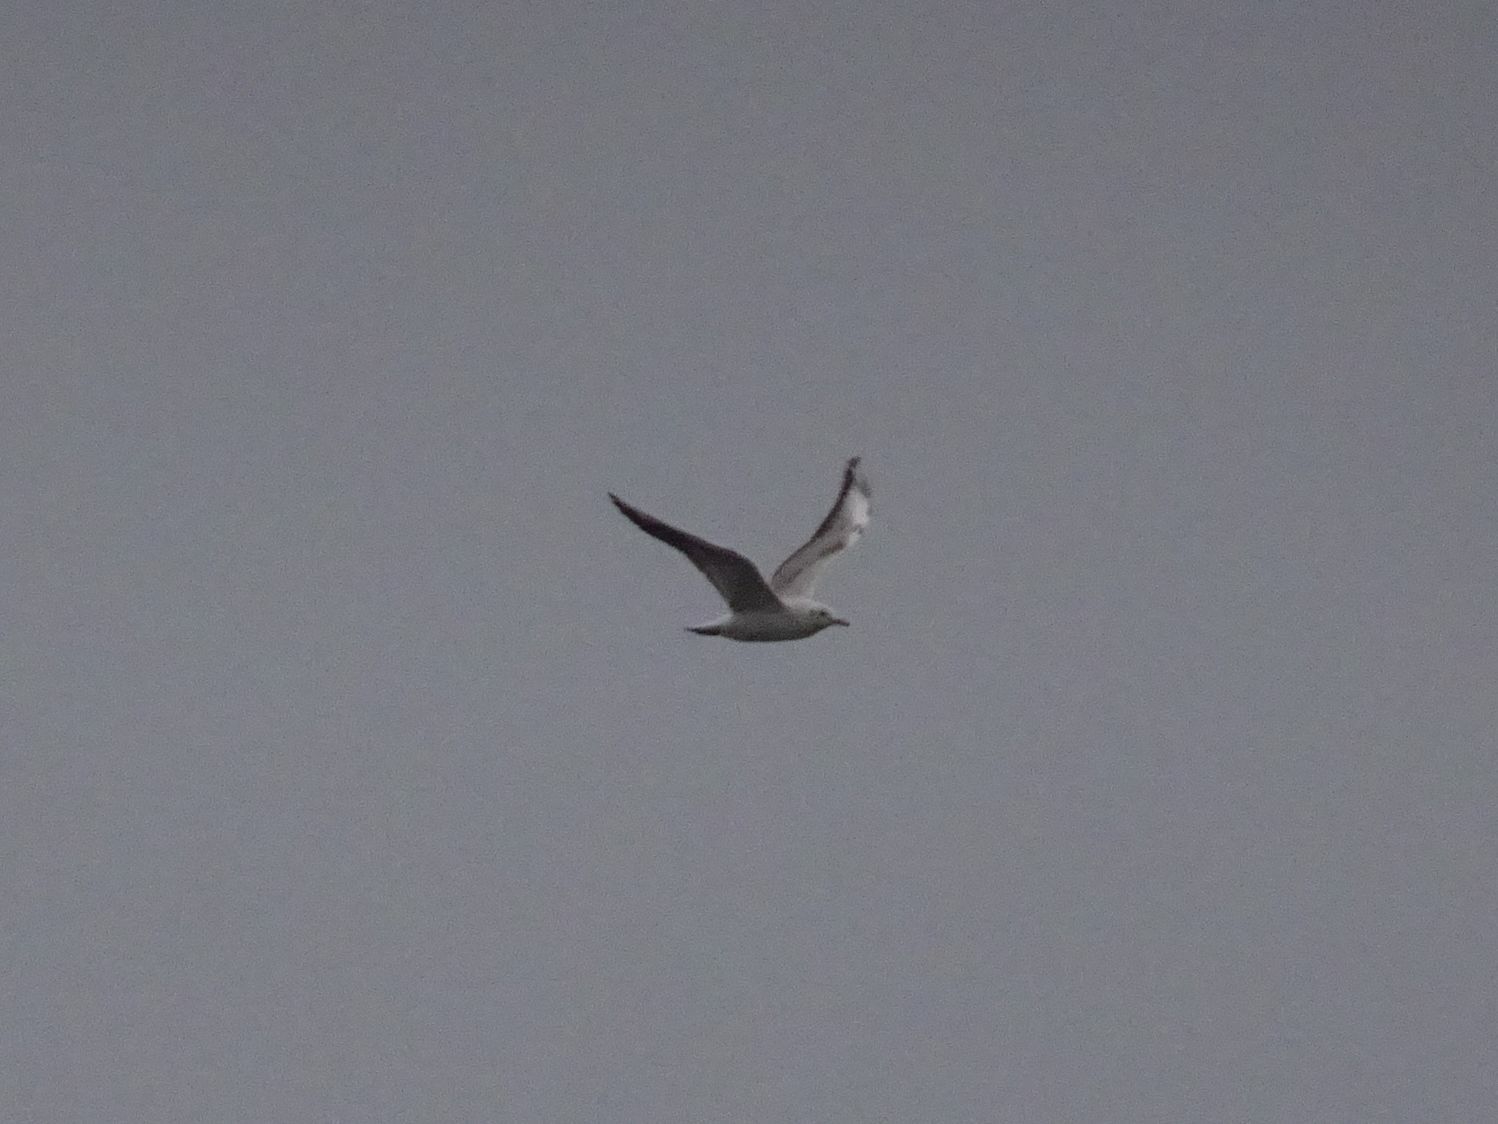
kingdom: Animalia
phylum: Chordata
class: Aves
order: Charadriiformes
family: Laridae
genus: Chroicocephalus
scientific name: Chroicocephalus ridibundus
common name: Black-headed gull
